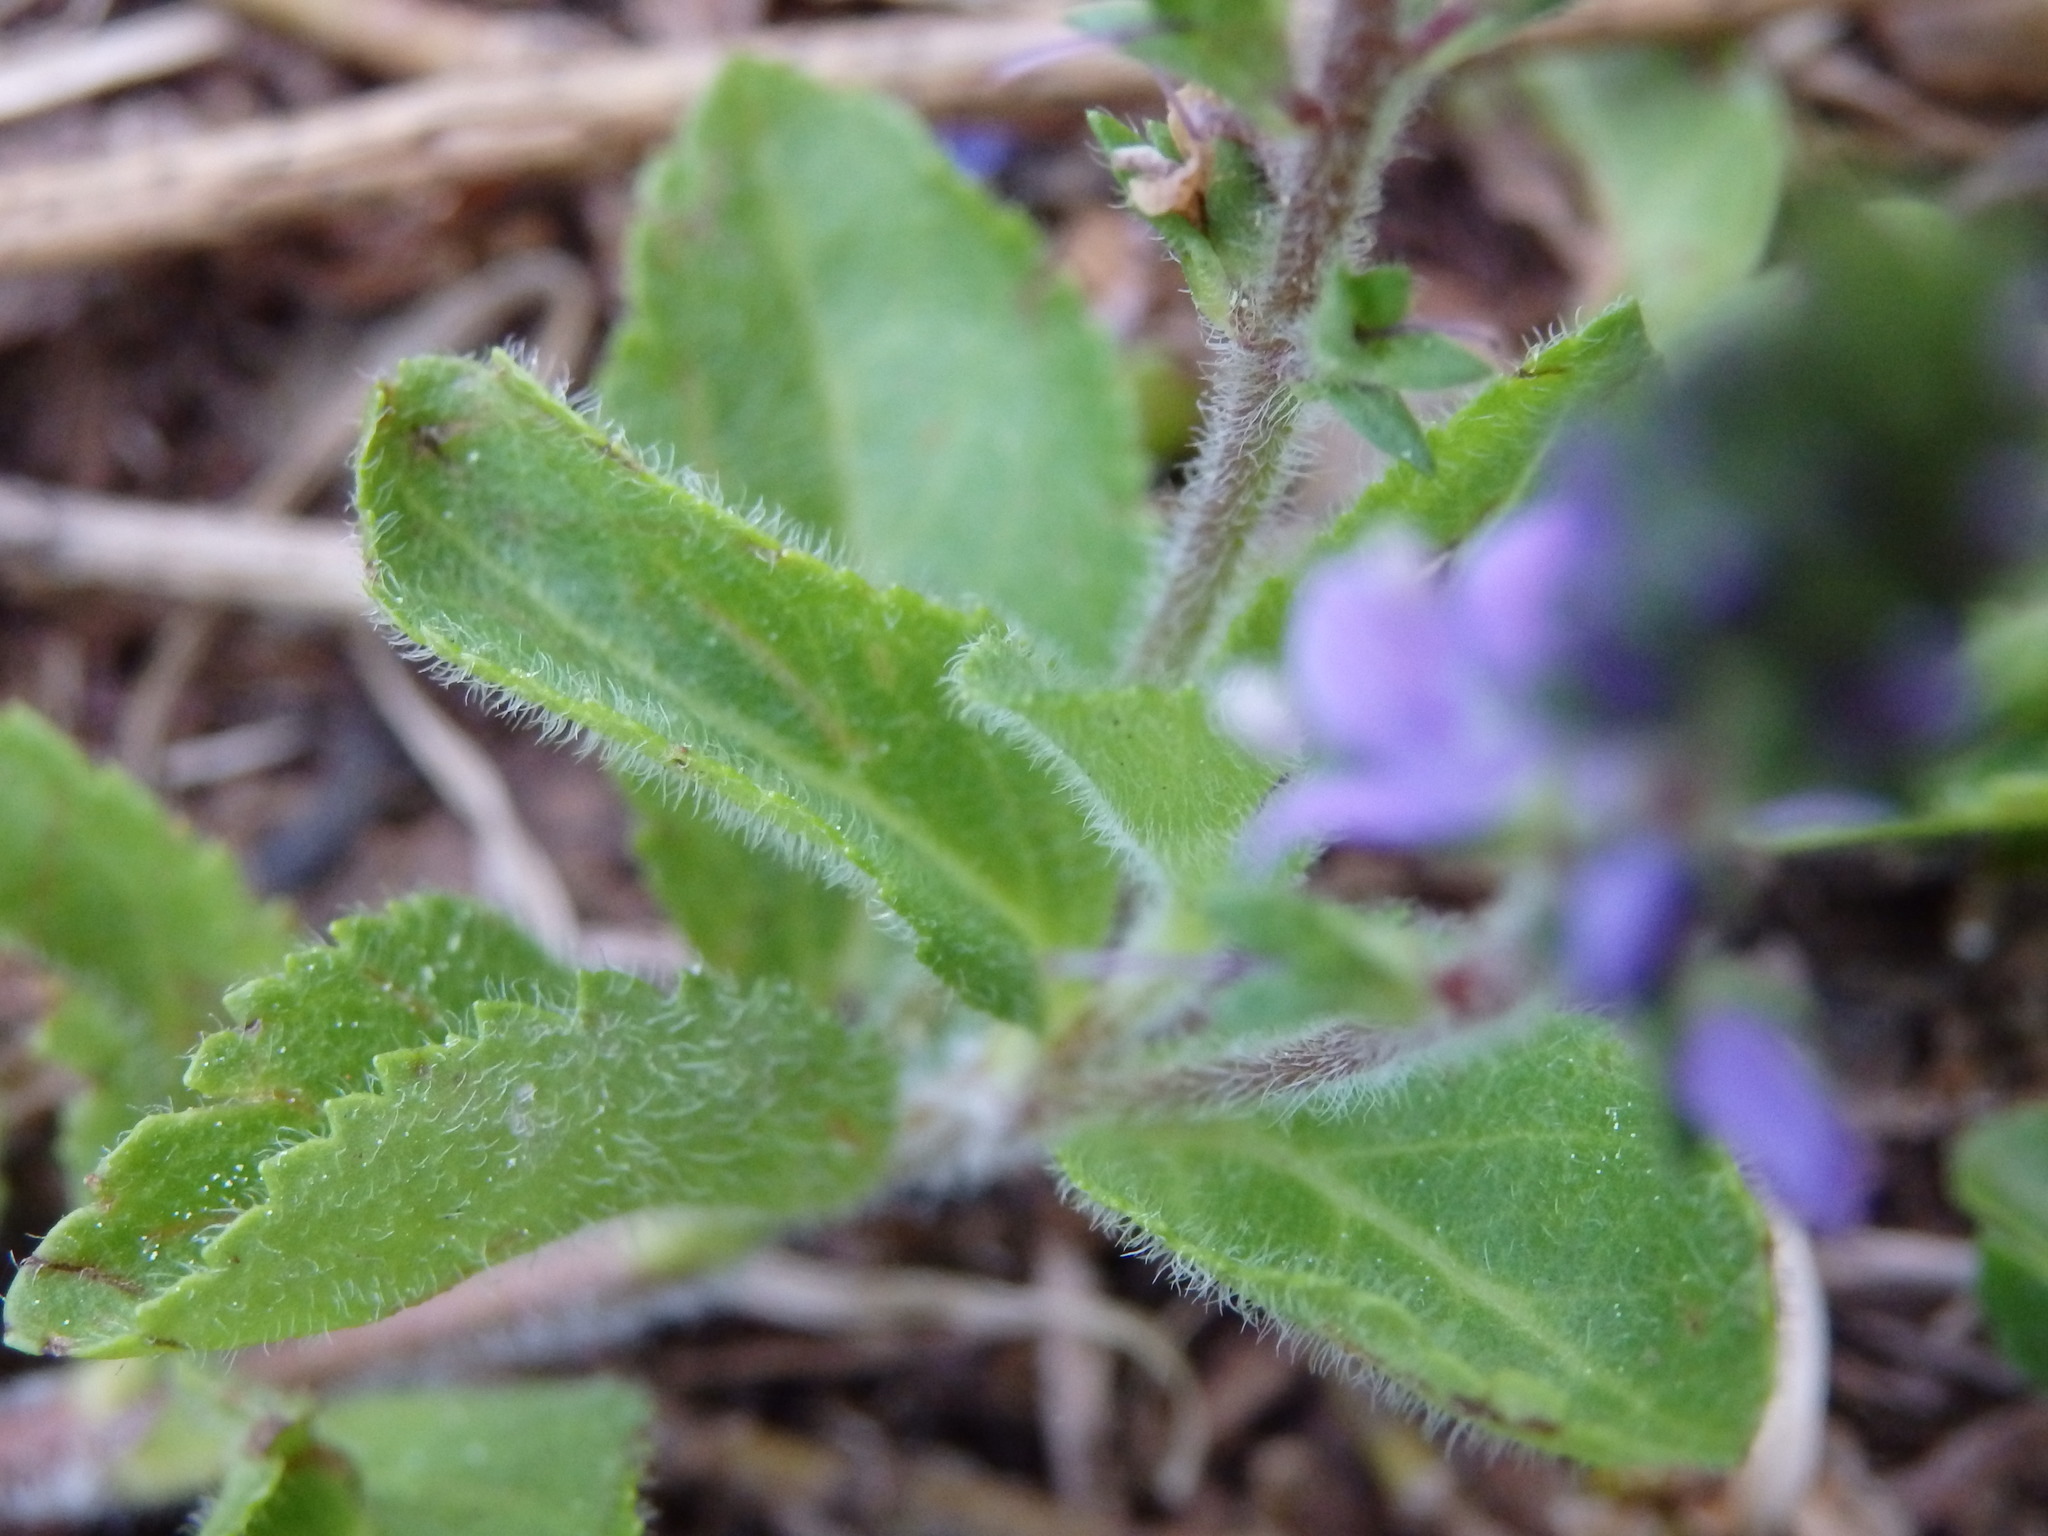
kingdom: Plantae
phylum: Tracheophyta
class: Magnoliopsida
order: Lamiales
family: Plantaginaceae
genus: Veronica
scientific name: Veronica officinalis
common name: Common speedwell
